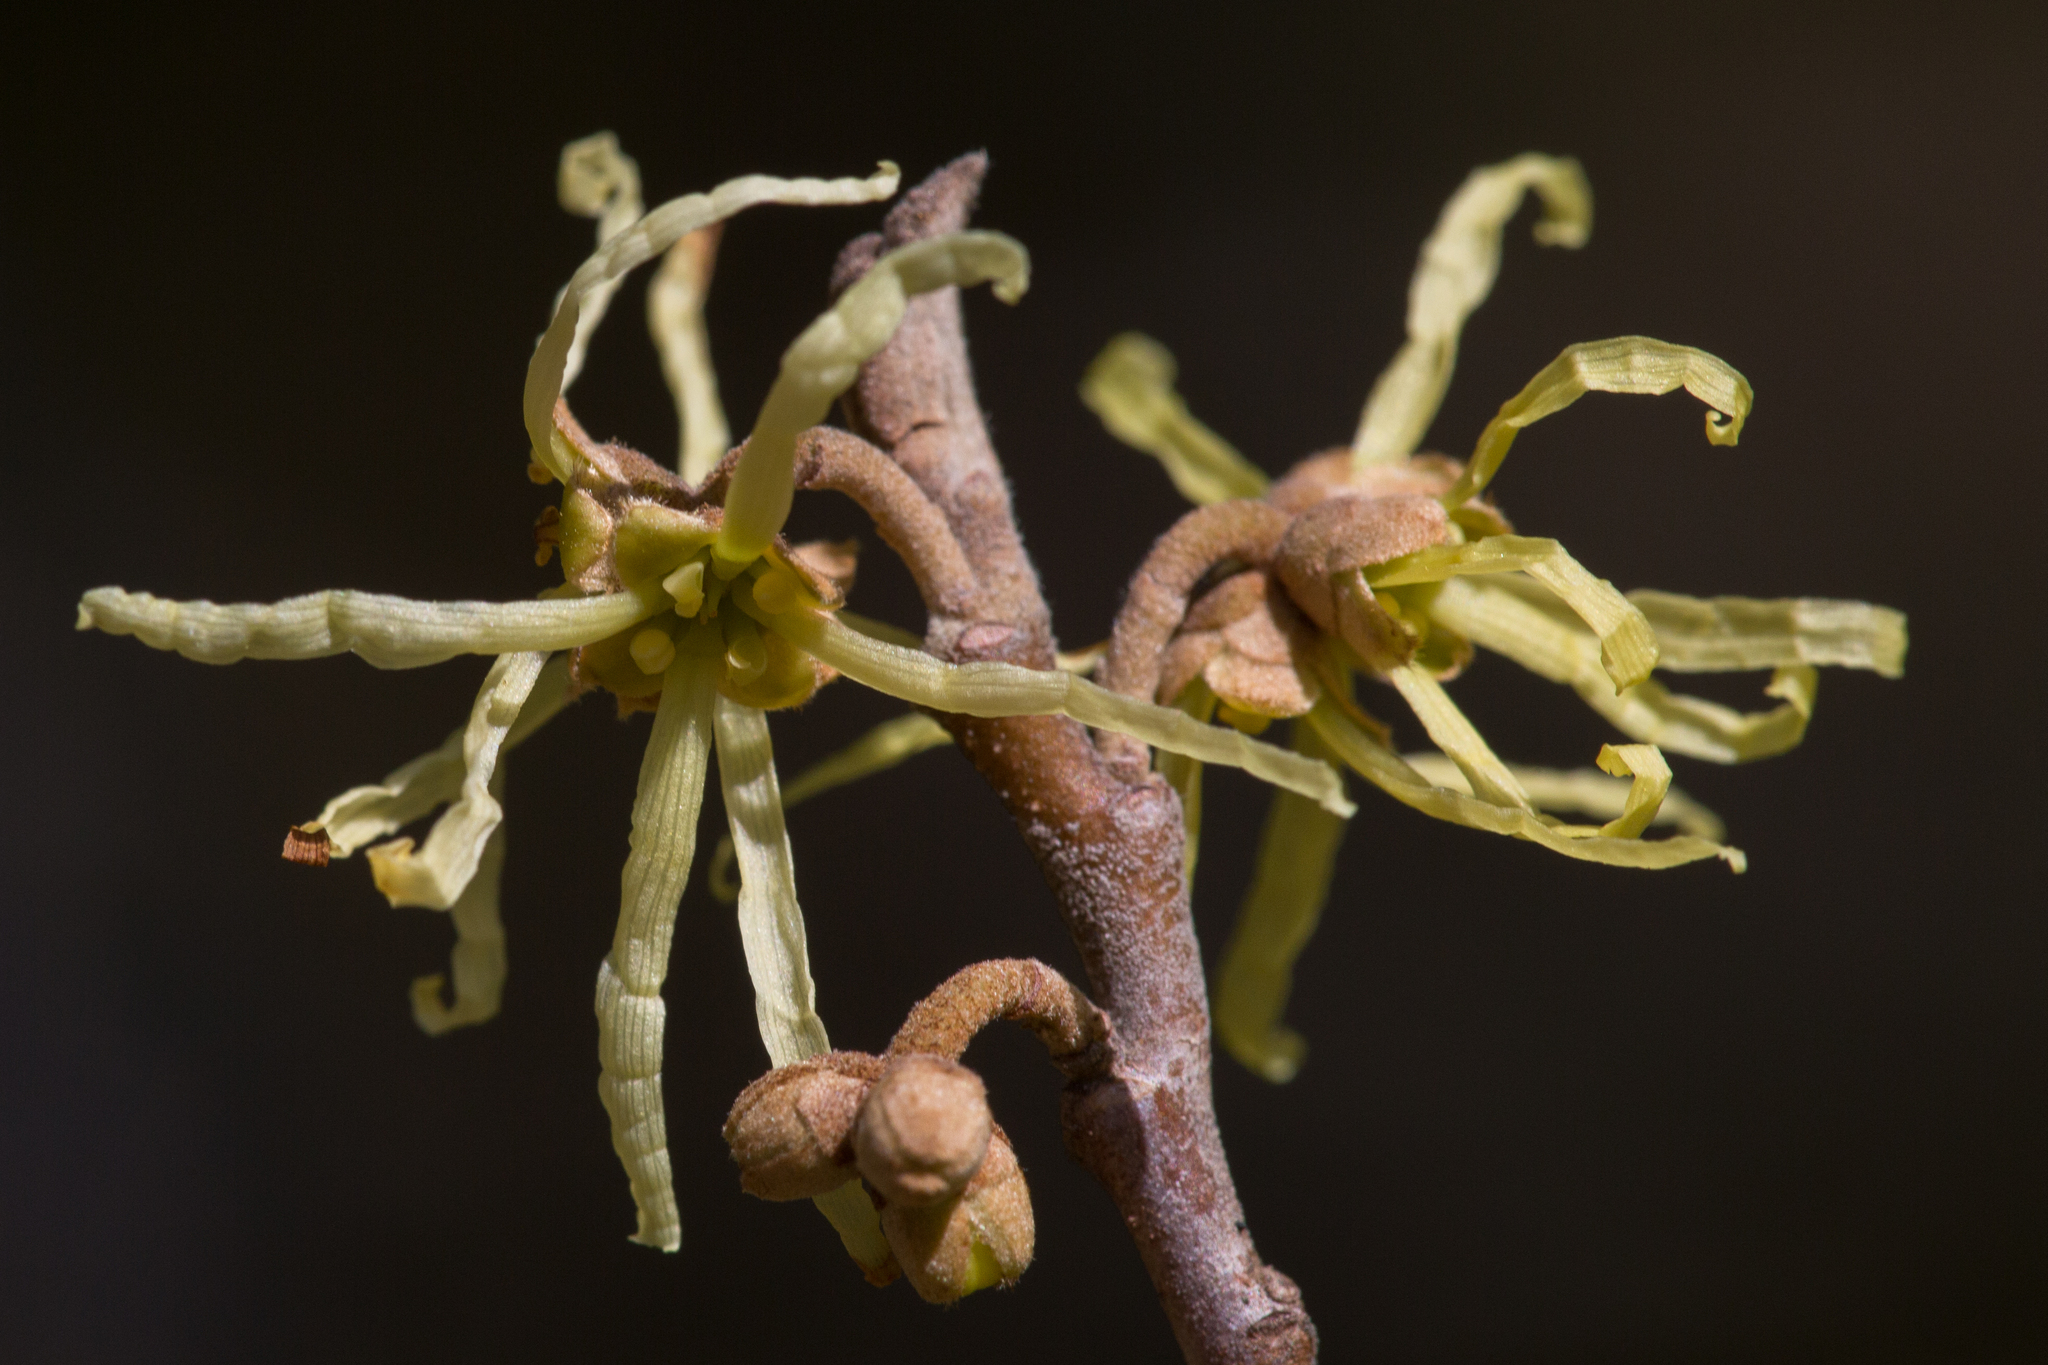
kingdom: Plantae
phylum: Tracheophyta
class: Magnoliopsida
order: Saxifragales
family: Hamamelidaceae
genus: Hamamelis
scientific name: Hamamelis virginiana
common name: Witch-hazel
